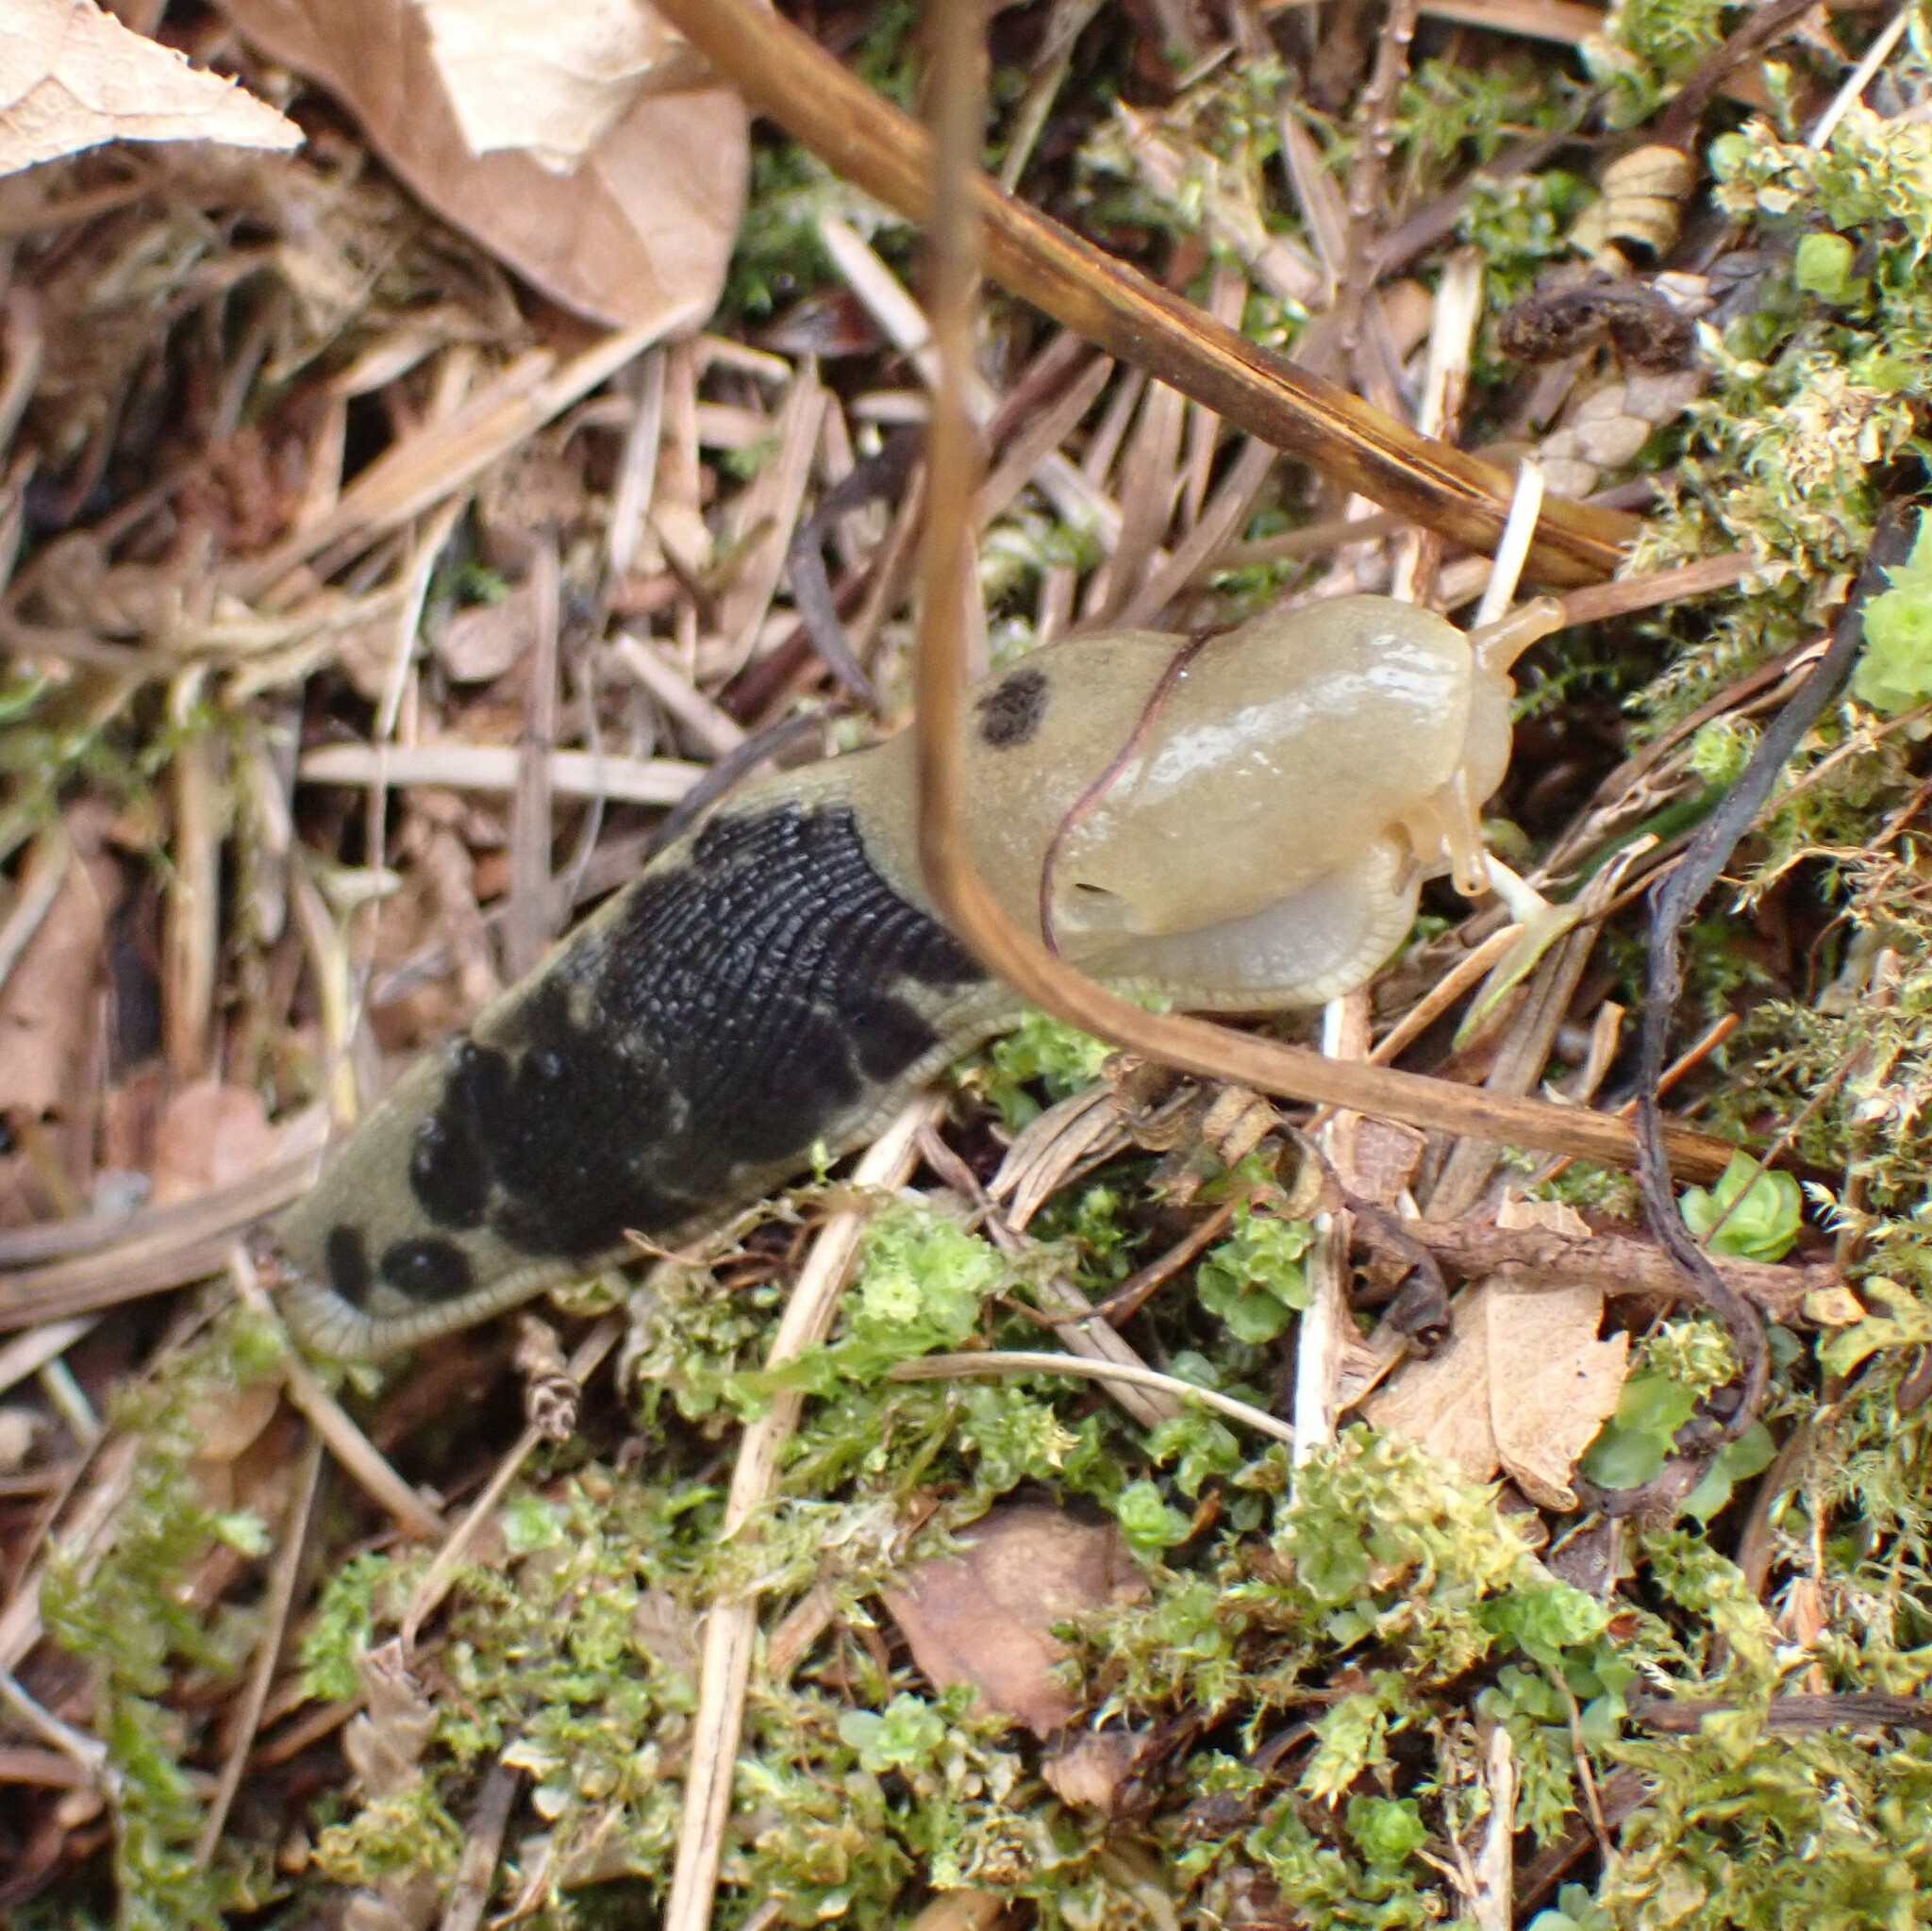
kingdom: Animalia
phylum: Mollusca
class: Gastropoda
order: Stylommatophora
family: Ariolimacidae
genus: Ariolimax
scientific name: Ariolimax columbianus
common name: Pacific banana slug
